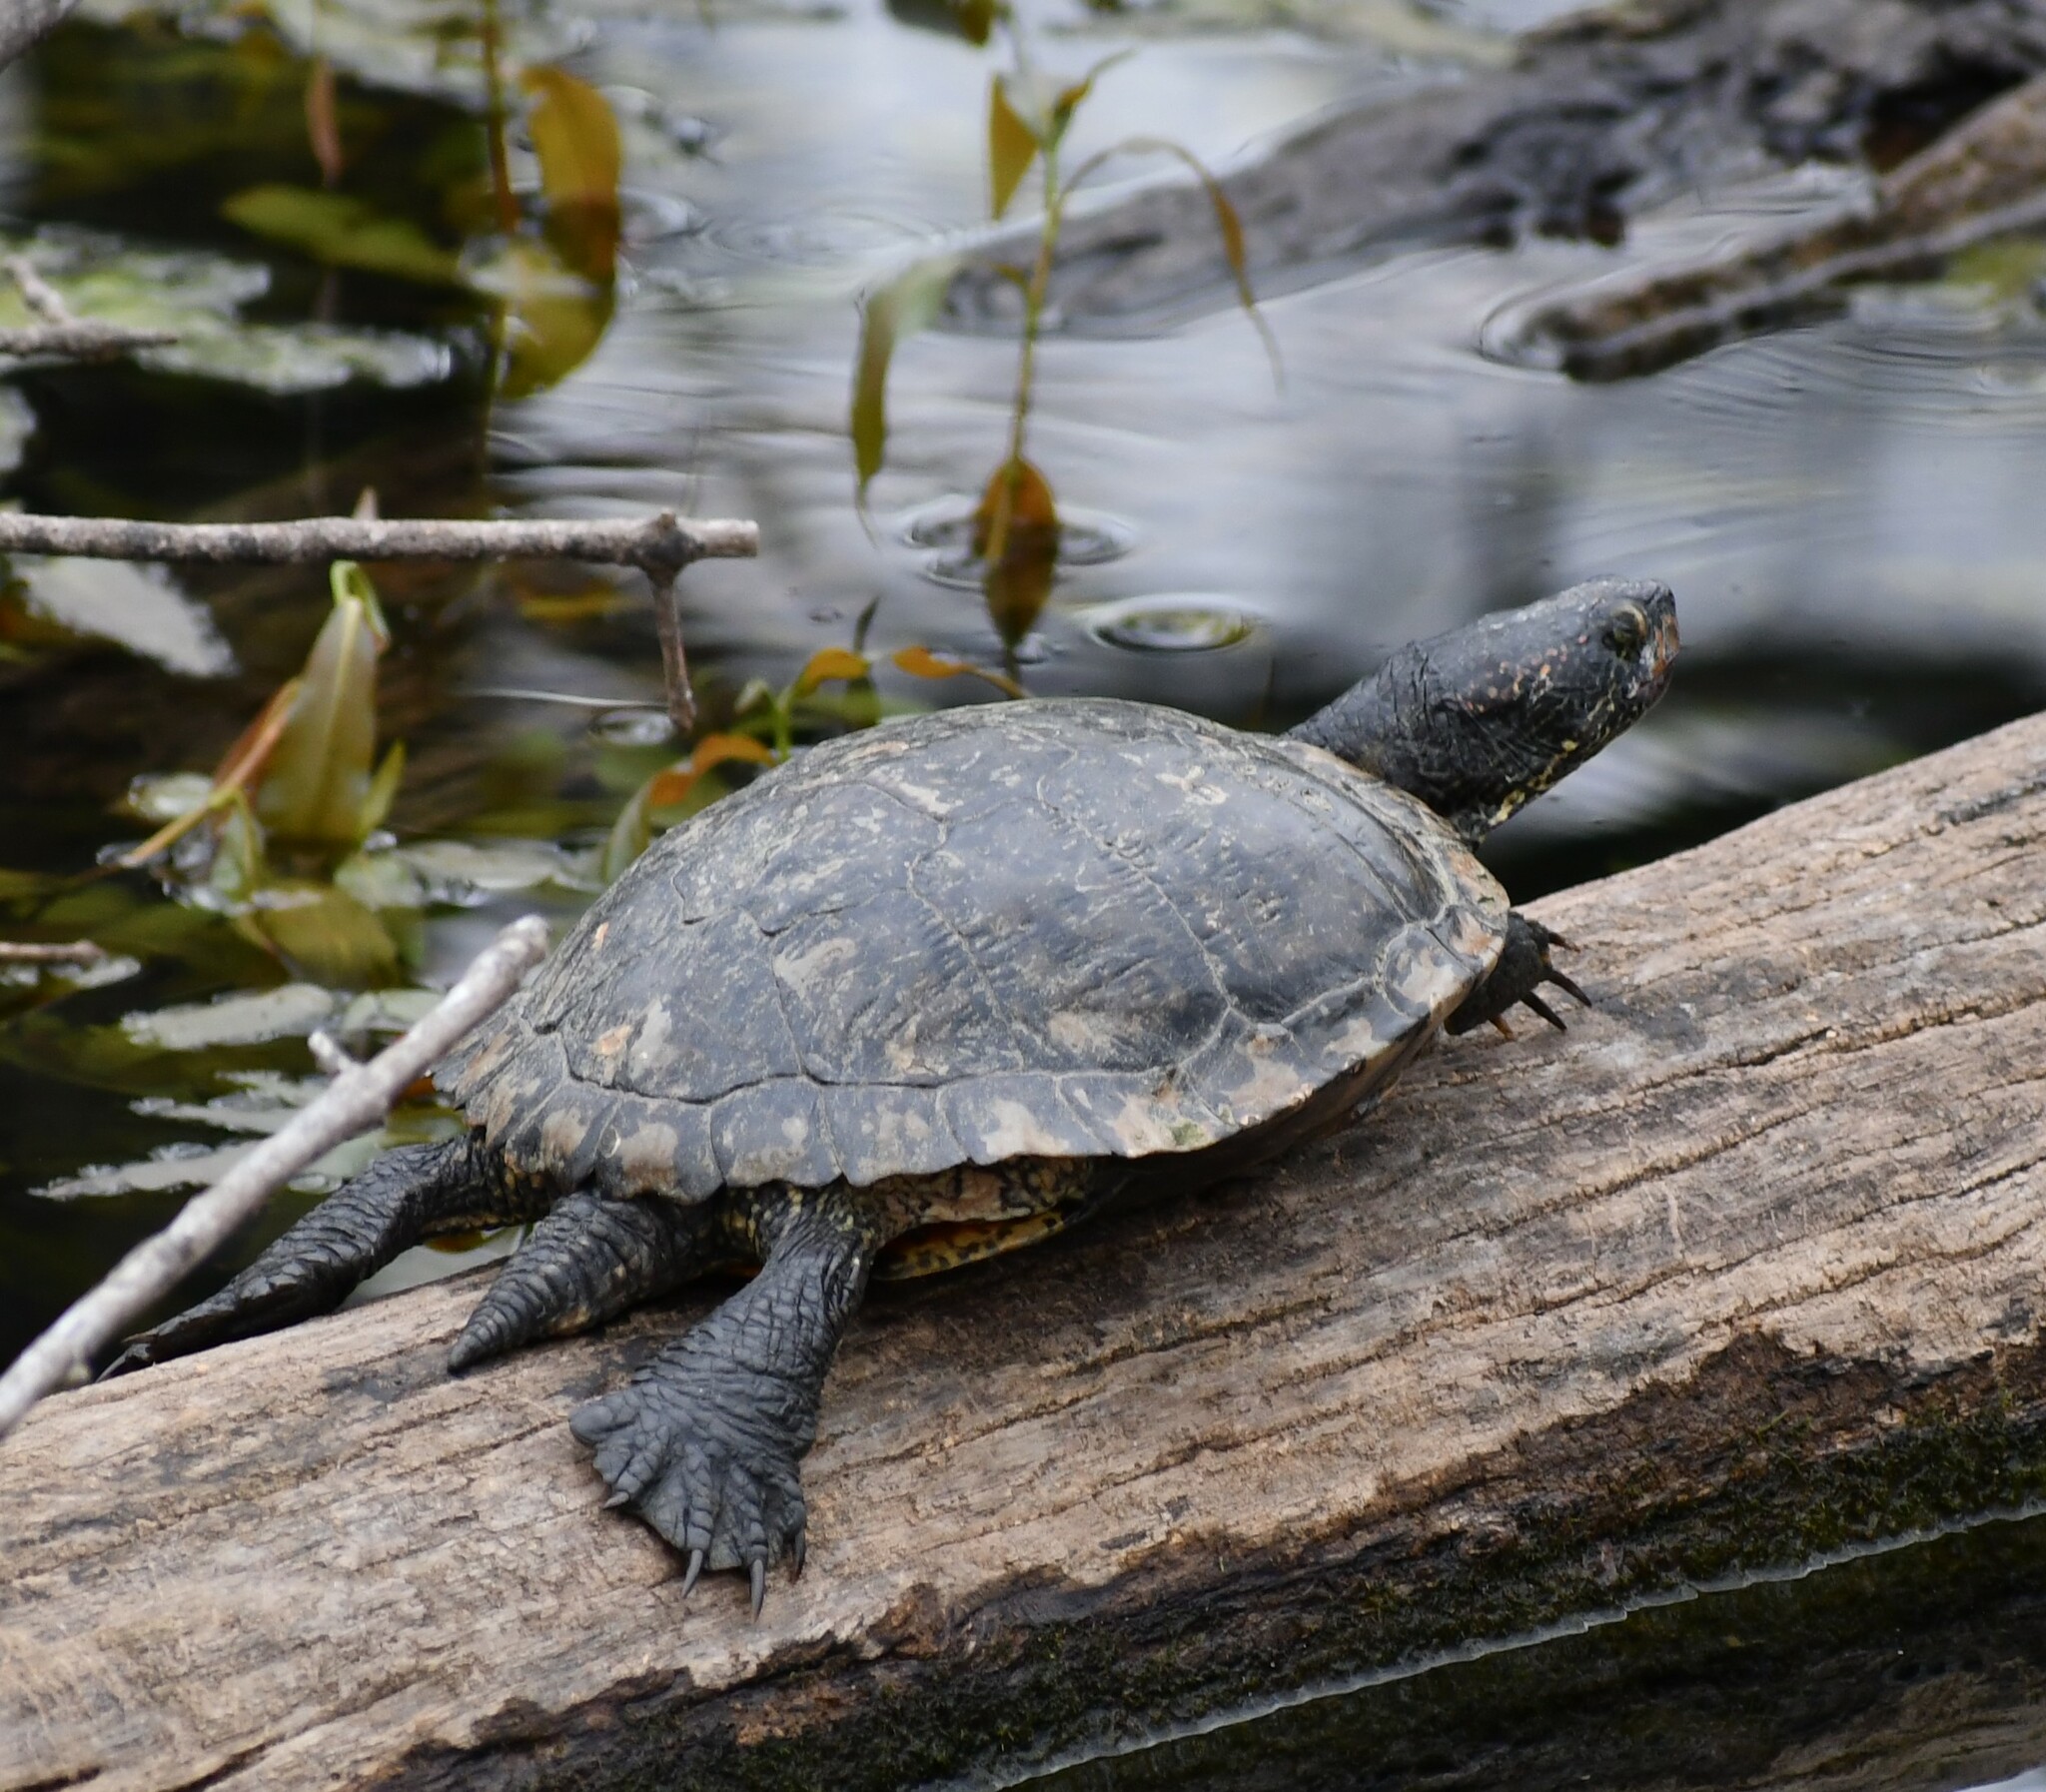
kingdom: Animalia
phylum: Chordata
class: Testudines
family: Emydidae
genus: Trachemys
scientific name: Trachemys scripta
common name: Slider
